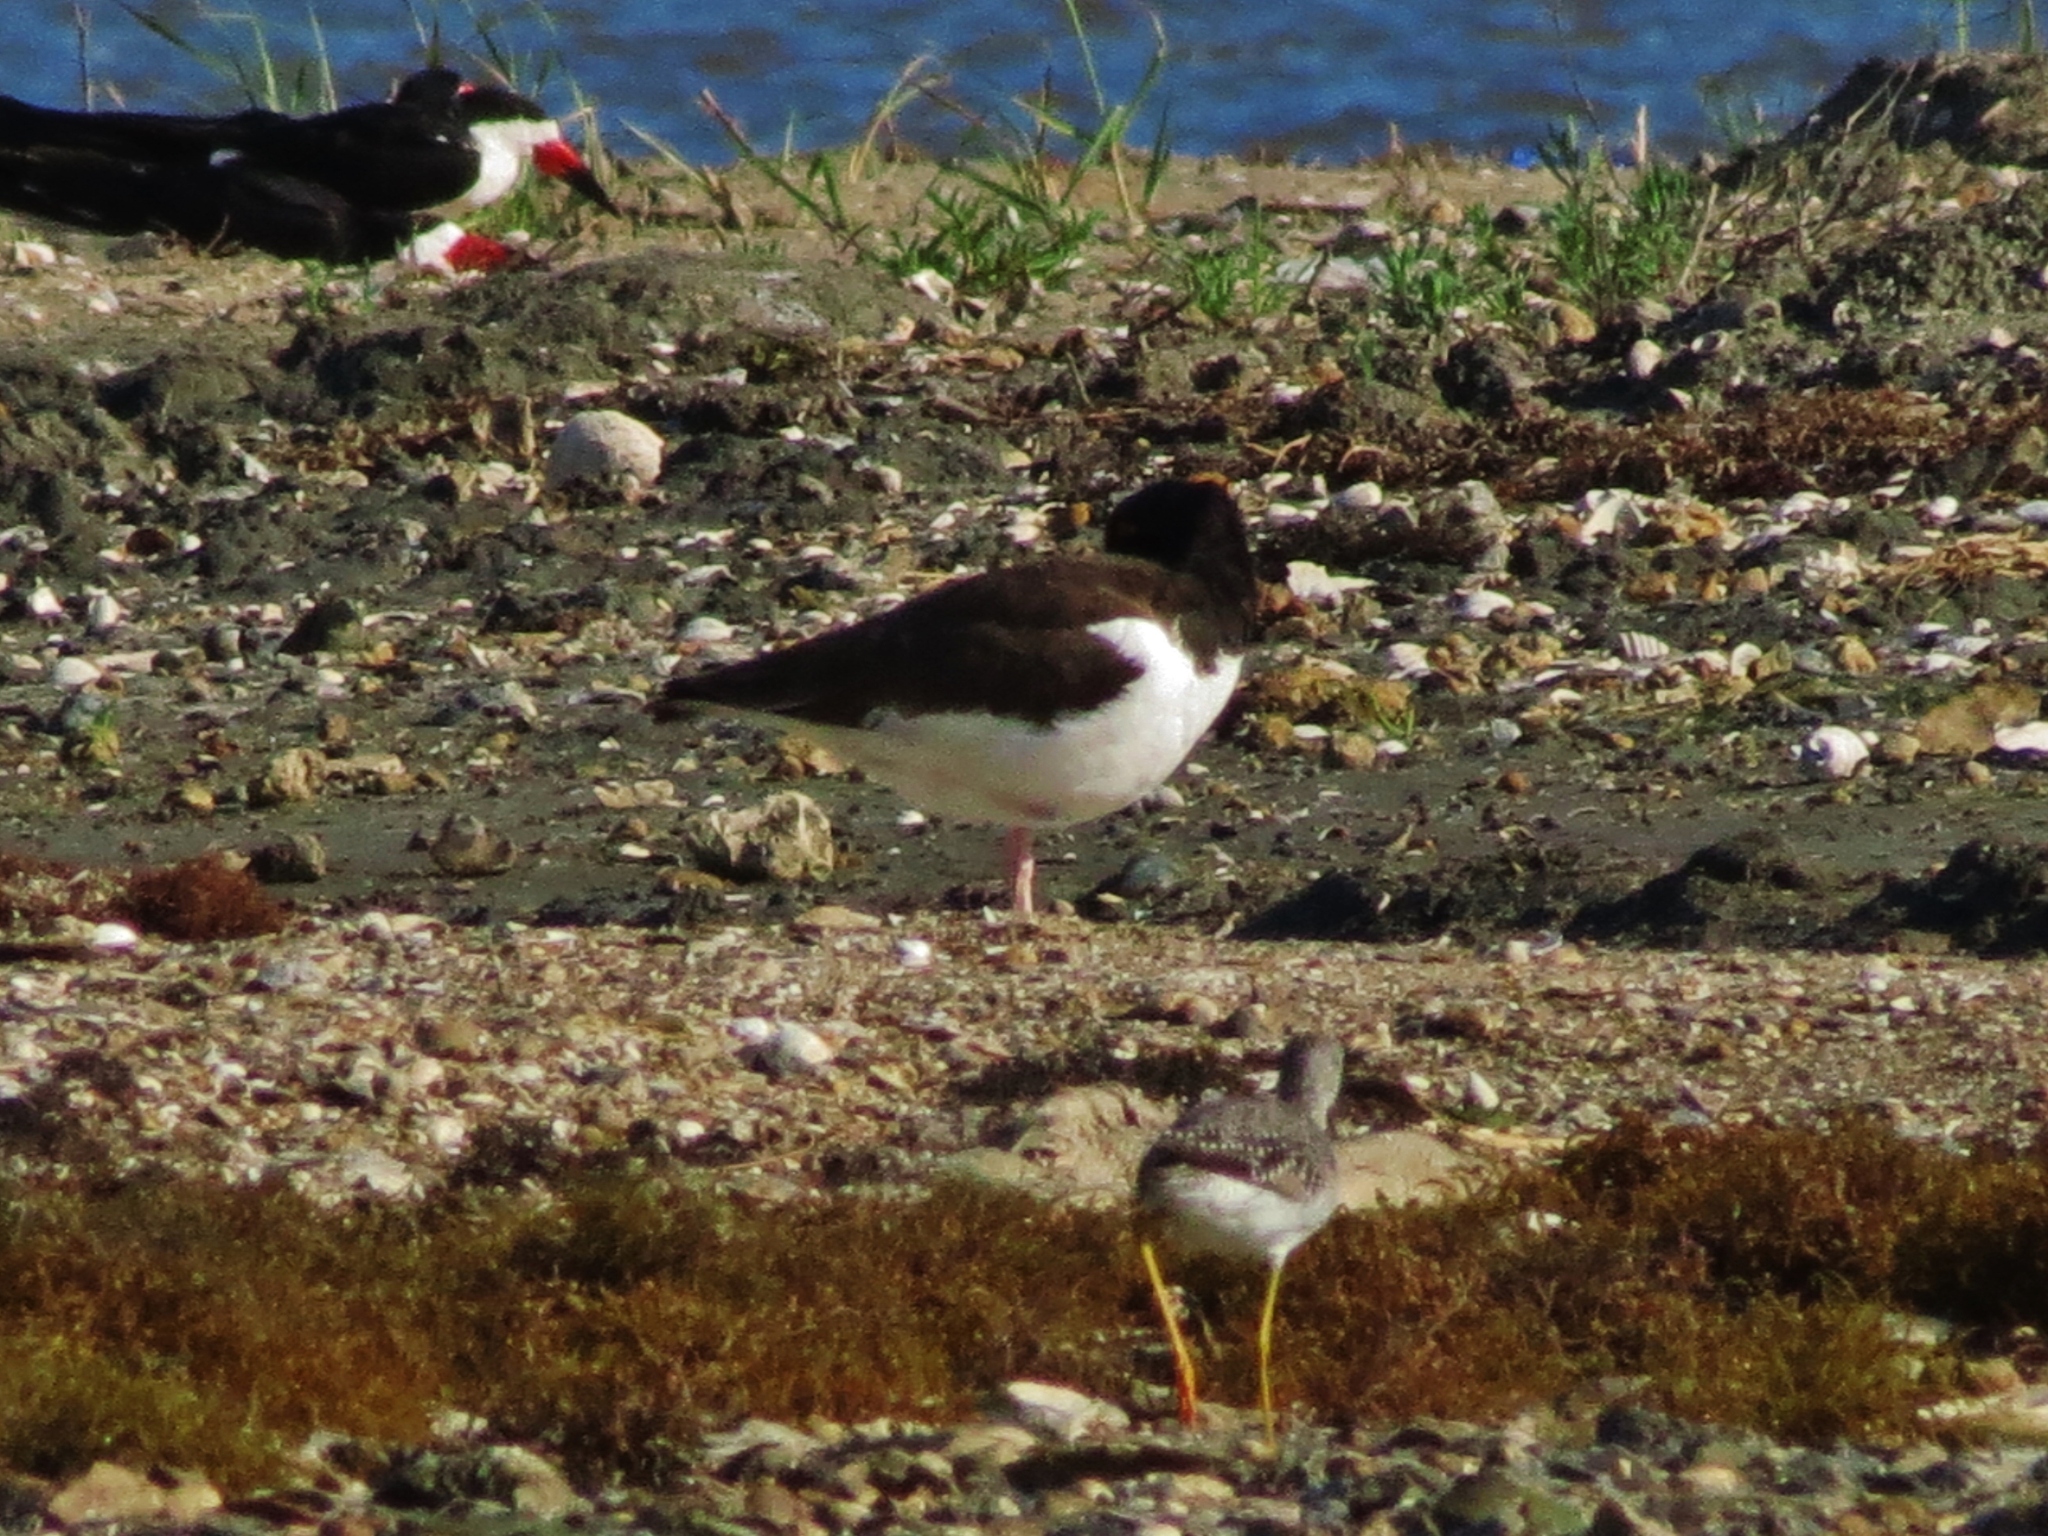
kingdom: Animalia
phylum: Chordata
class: Aves
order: Charadriiformes
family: Haematopodidae
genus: Haematopus
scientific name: Haematopus palliatus
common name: American oystercatcher
